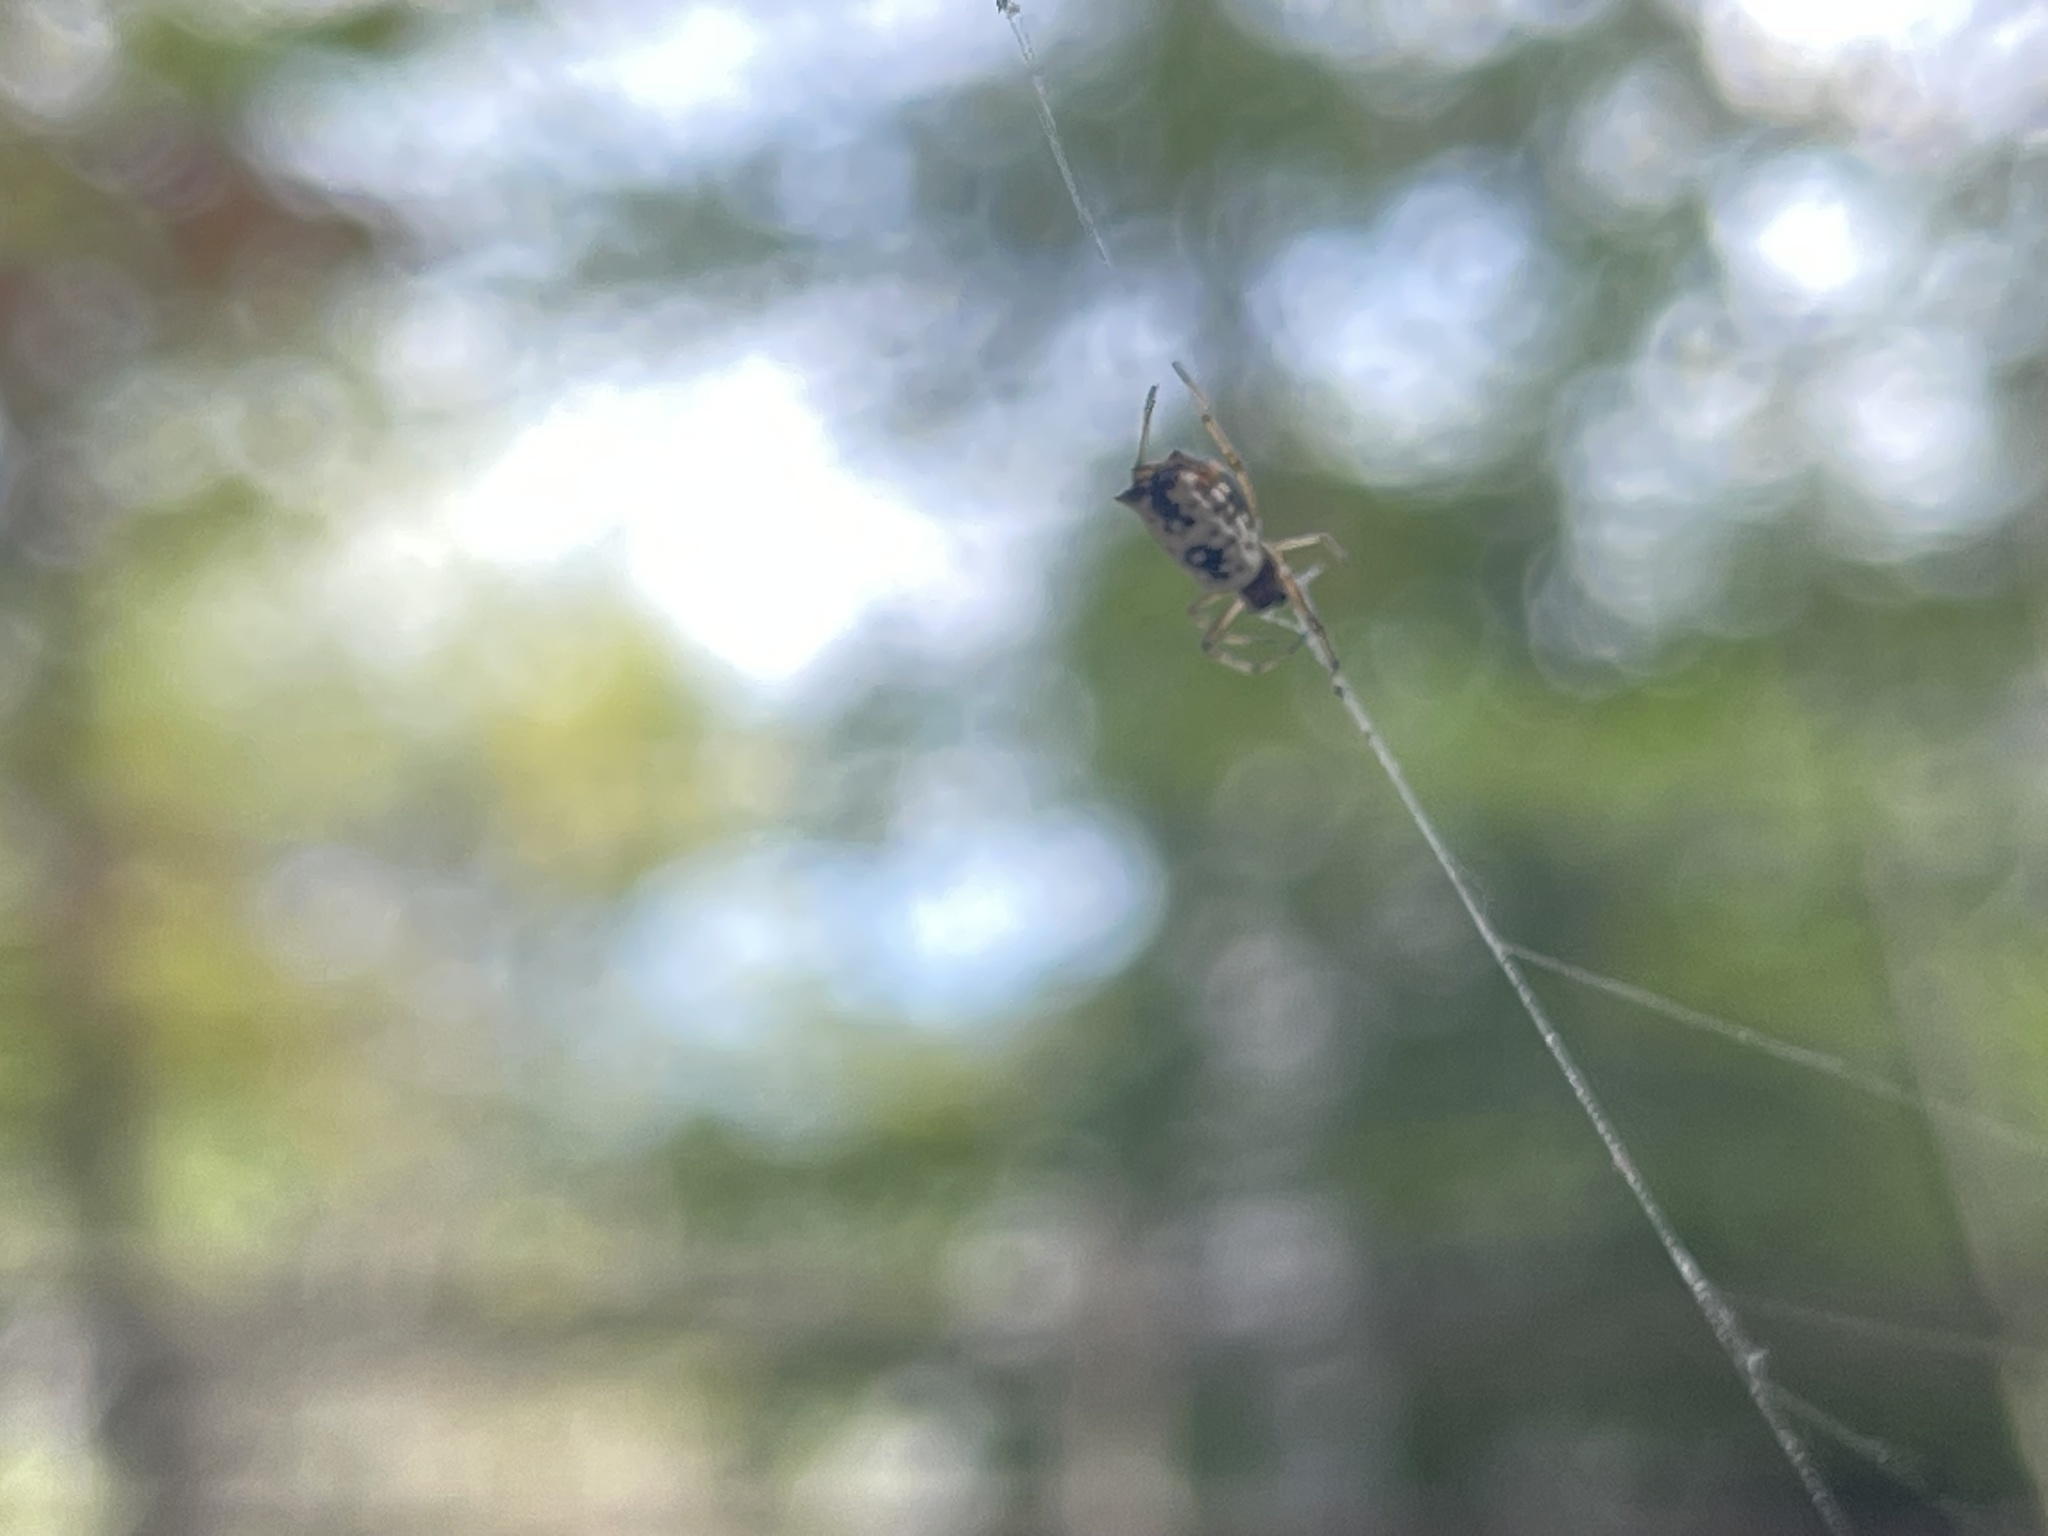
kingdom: Animalia
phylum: Arthropoda
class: Arachnida
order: Araneae
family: Araneidae
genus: Micrathena
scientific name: Micrathena mitrata
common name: Orb weavers
